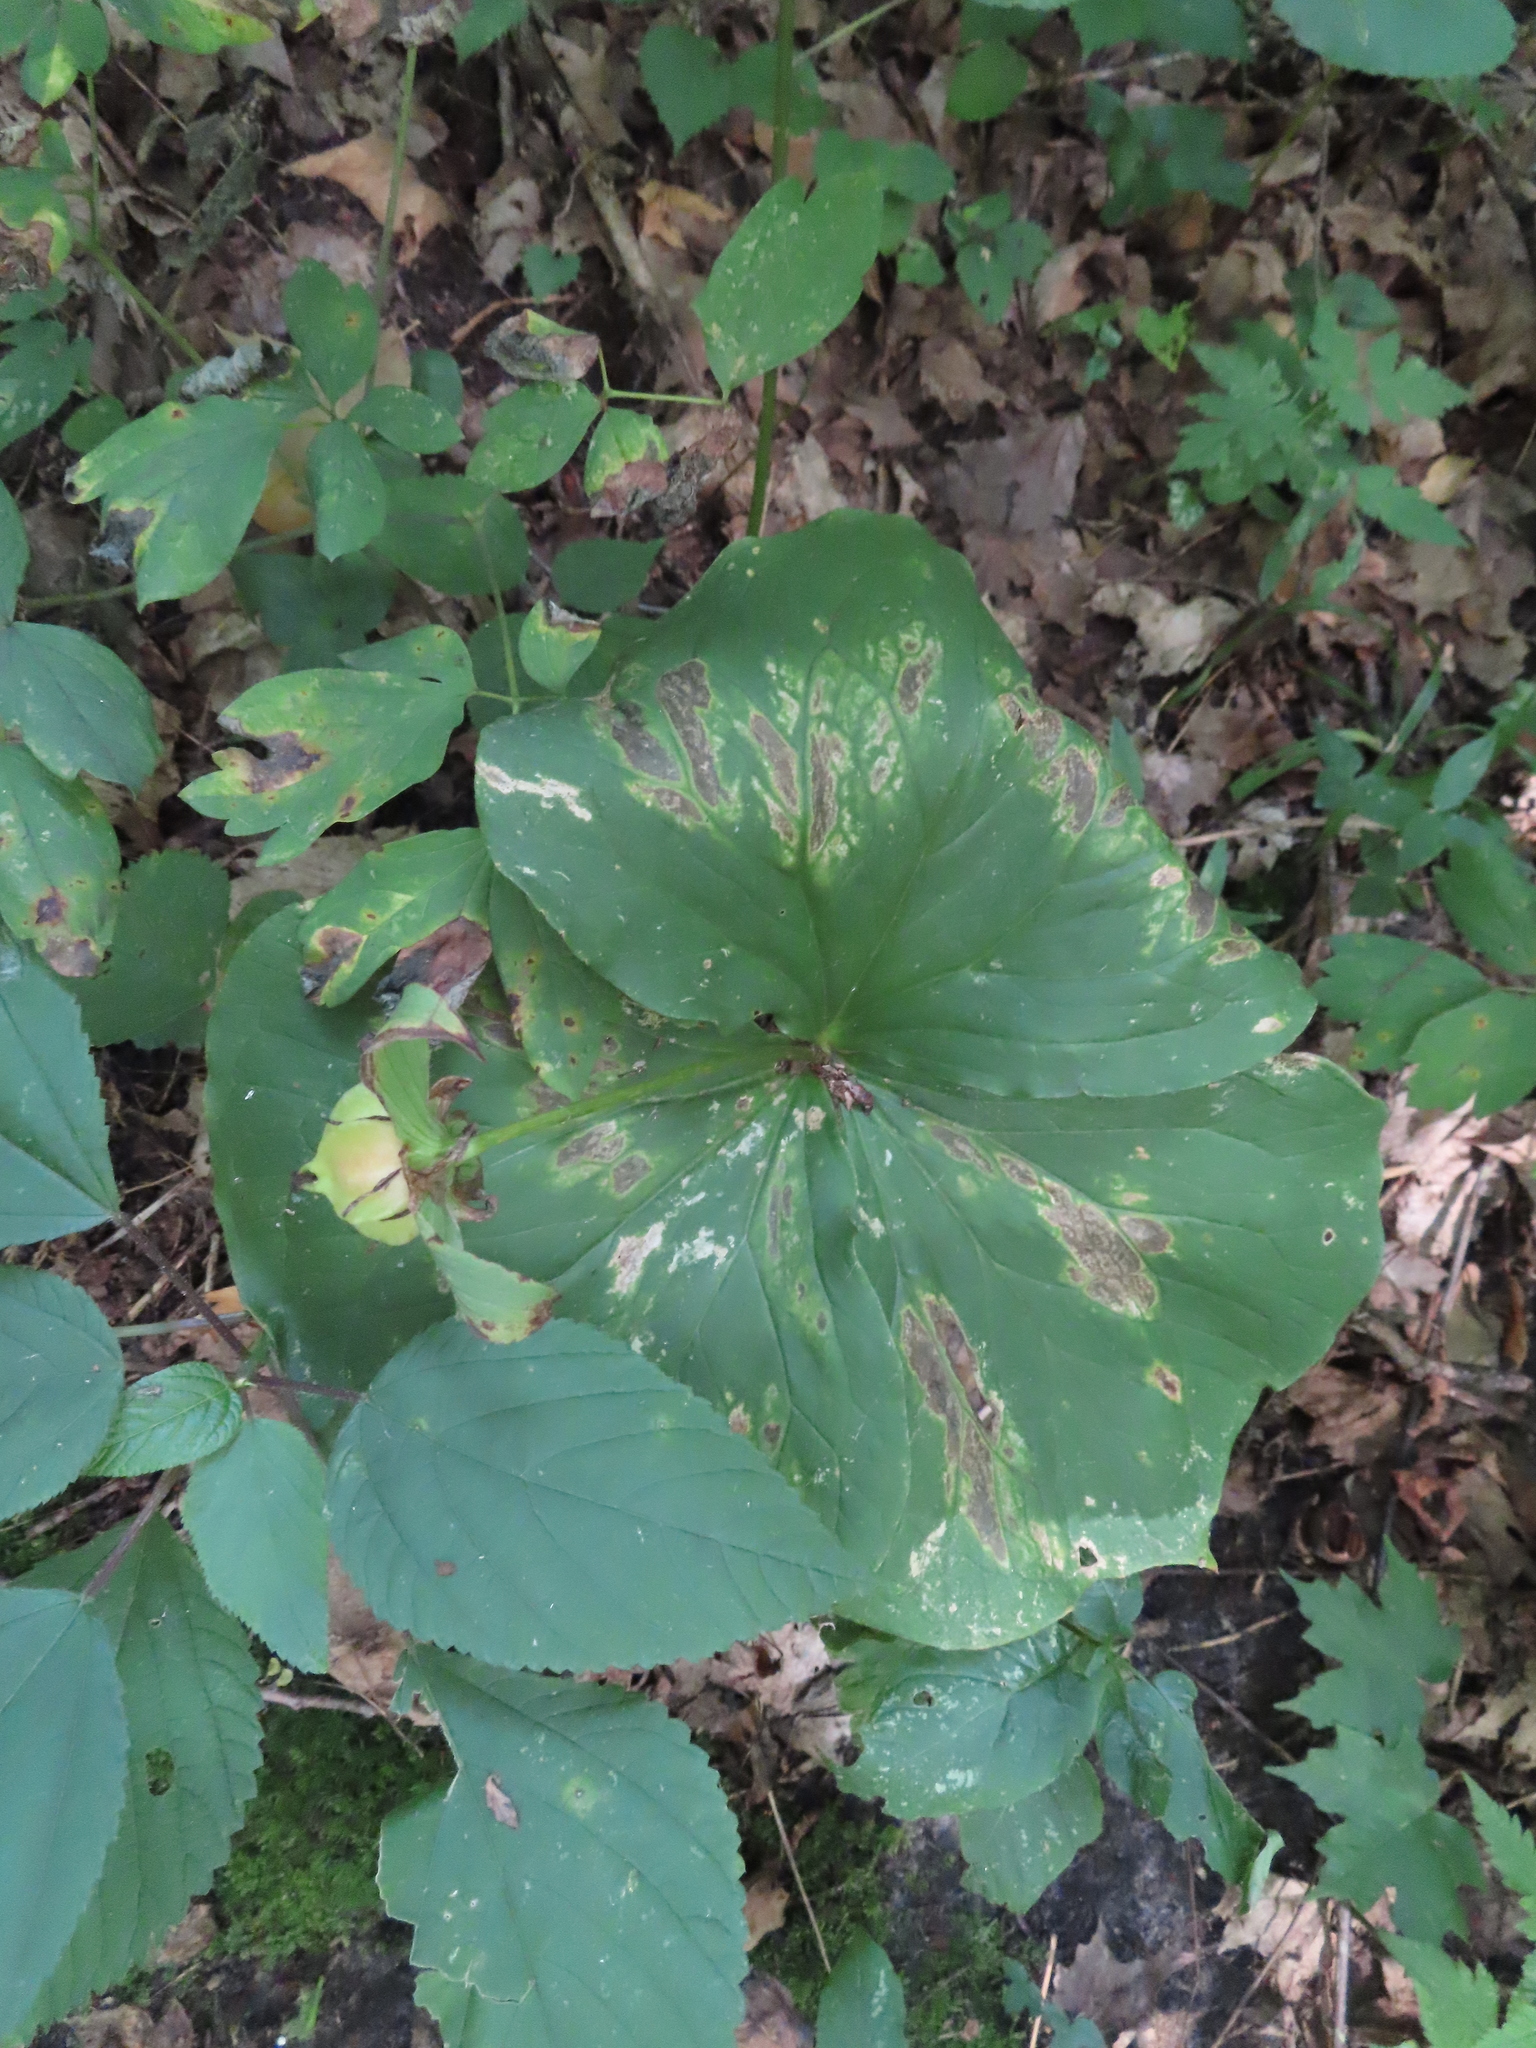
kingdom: Plantae
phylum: Tracheophyta
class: Liliopsida
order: Liliales
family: Melanthiaceae
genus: Trillium
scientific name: Trillium flexipes
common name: Drooping trillium
